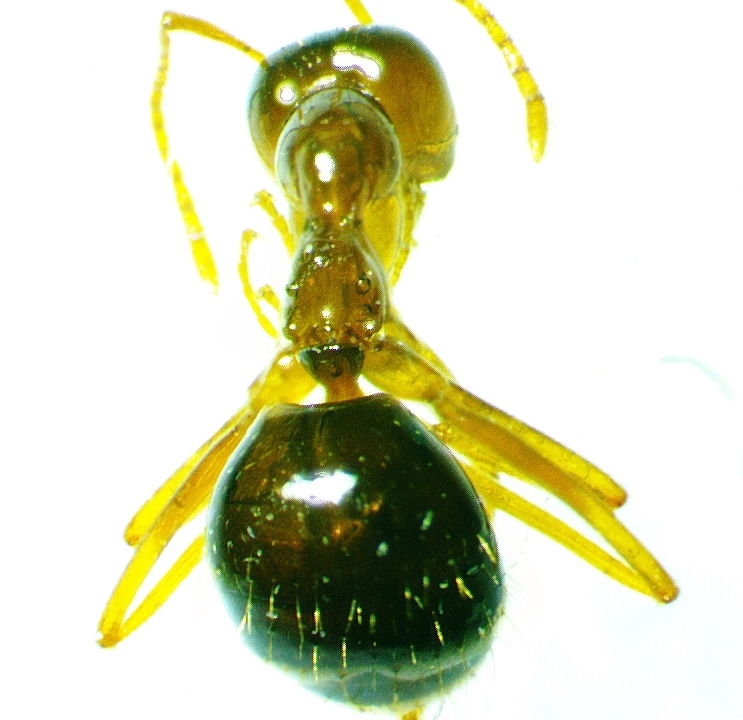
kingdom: Animalia
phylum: Arthropoda
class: Insecta
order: Hymenoptera
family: Formicidae
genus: Prenolepis
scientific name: Prenolepis imparis
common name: Small honey ant
